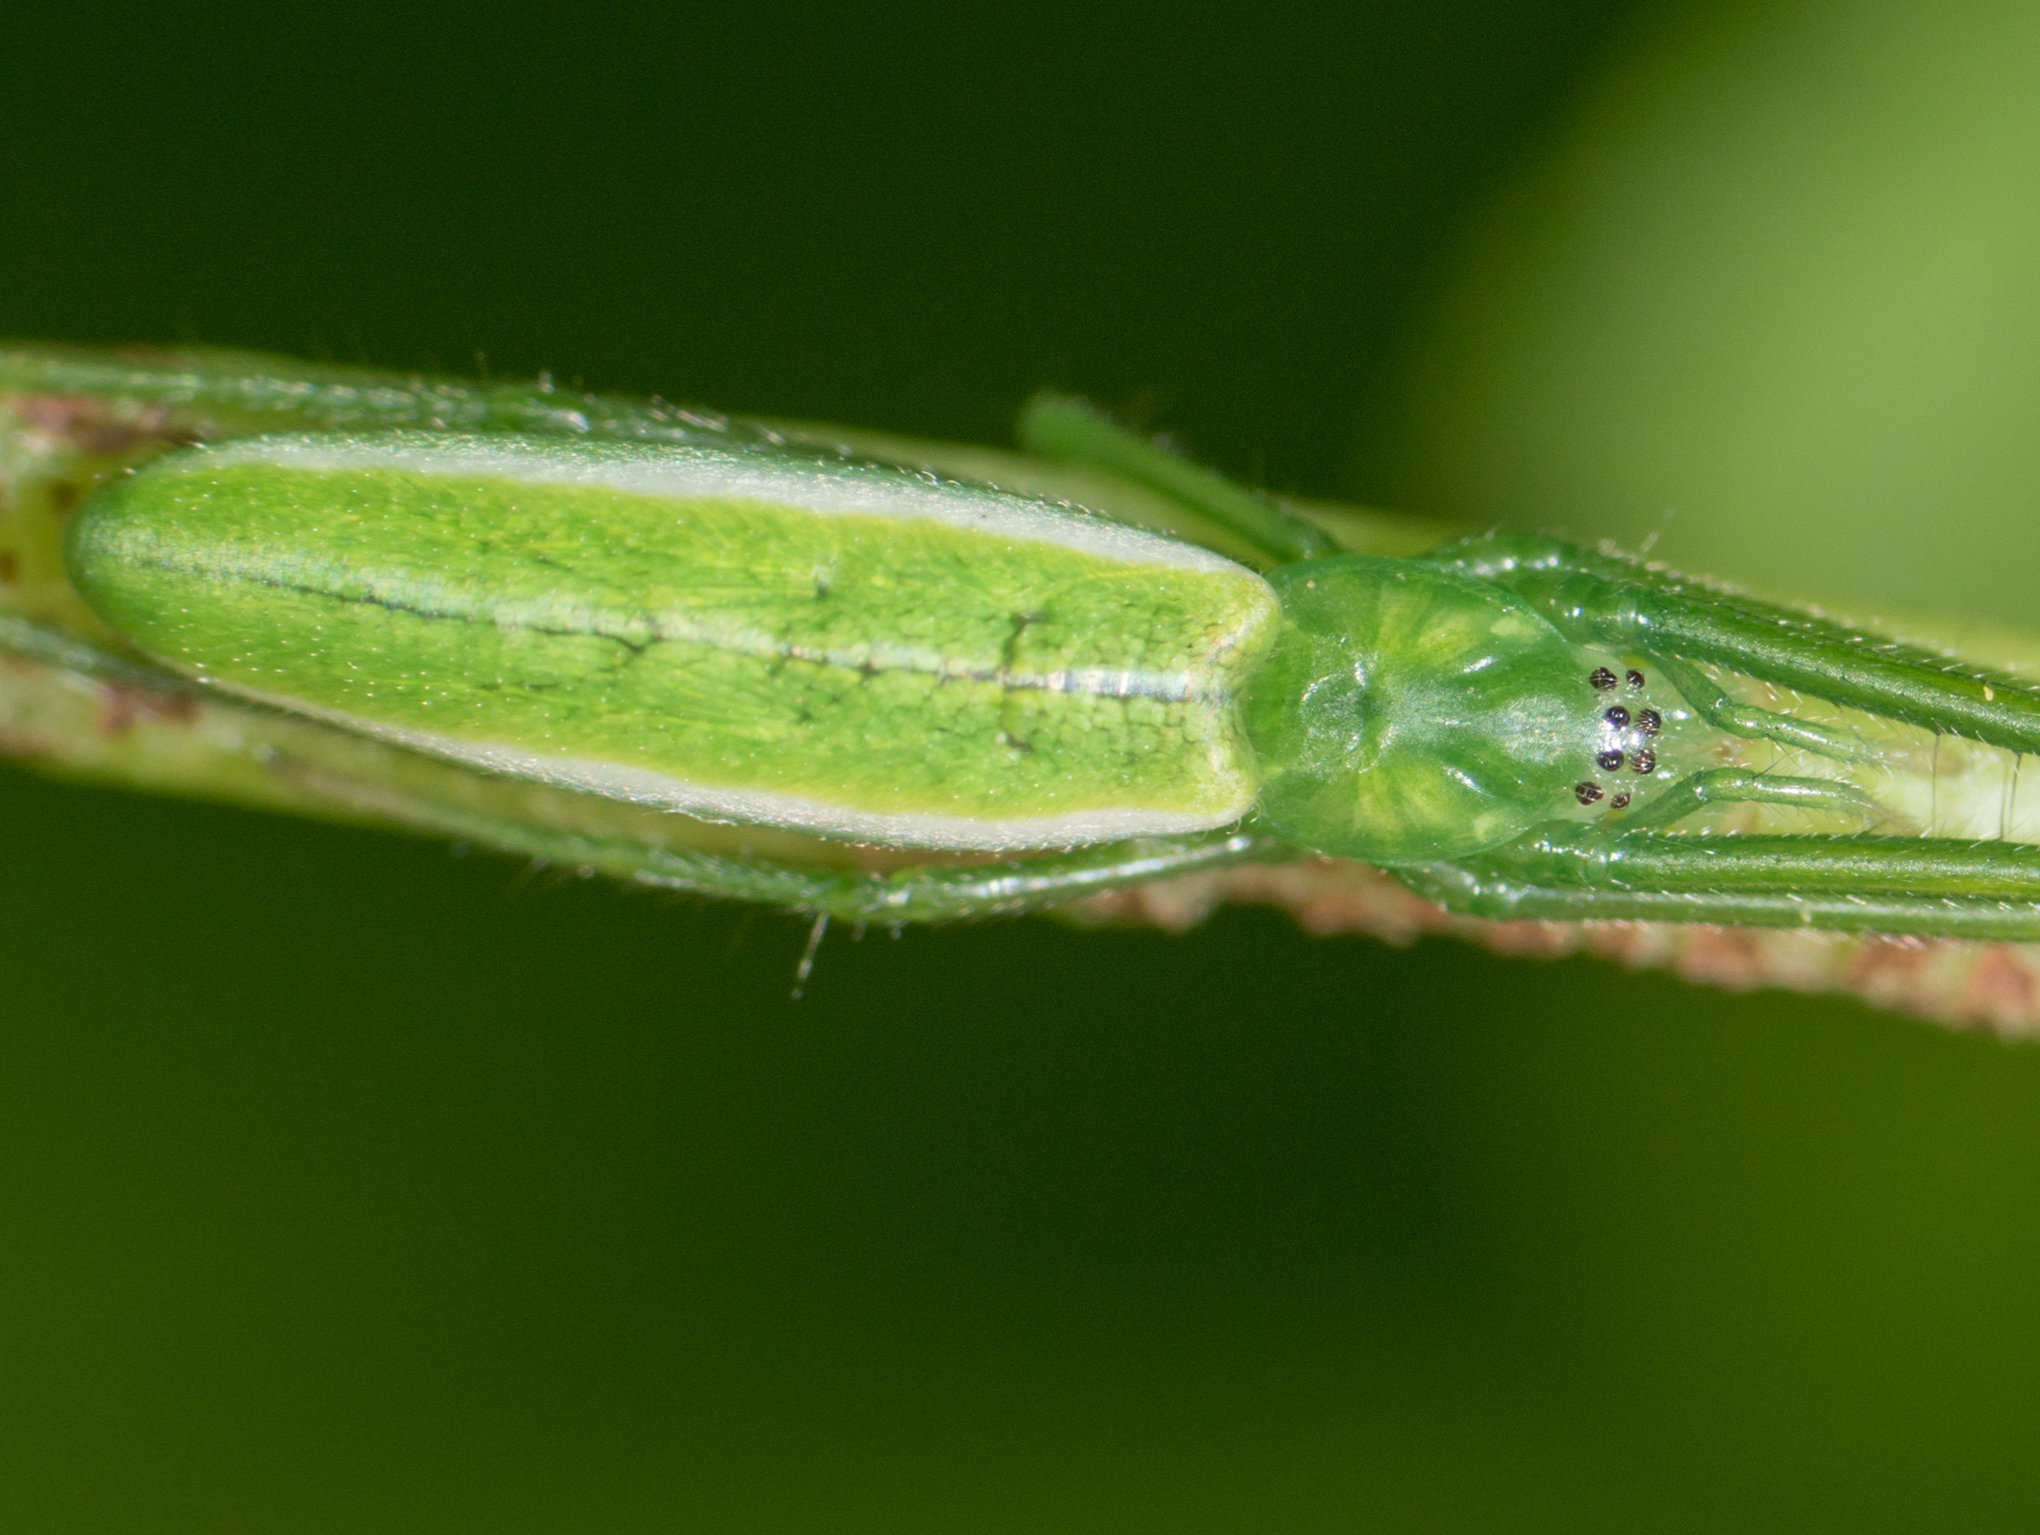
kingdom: Animalia
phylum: Arthropoda
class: Arachnida
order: Araneae
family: Tetragnathidae
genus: Tetragnatha
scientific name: Tetragnatha viridis
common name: Green long-jawed spider
